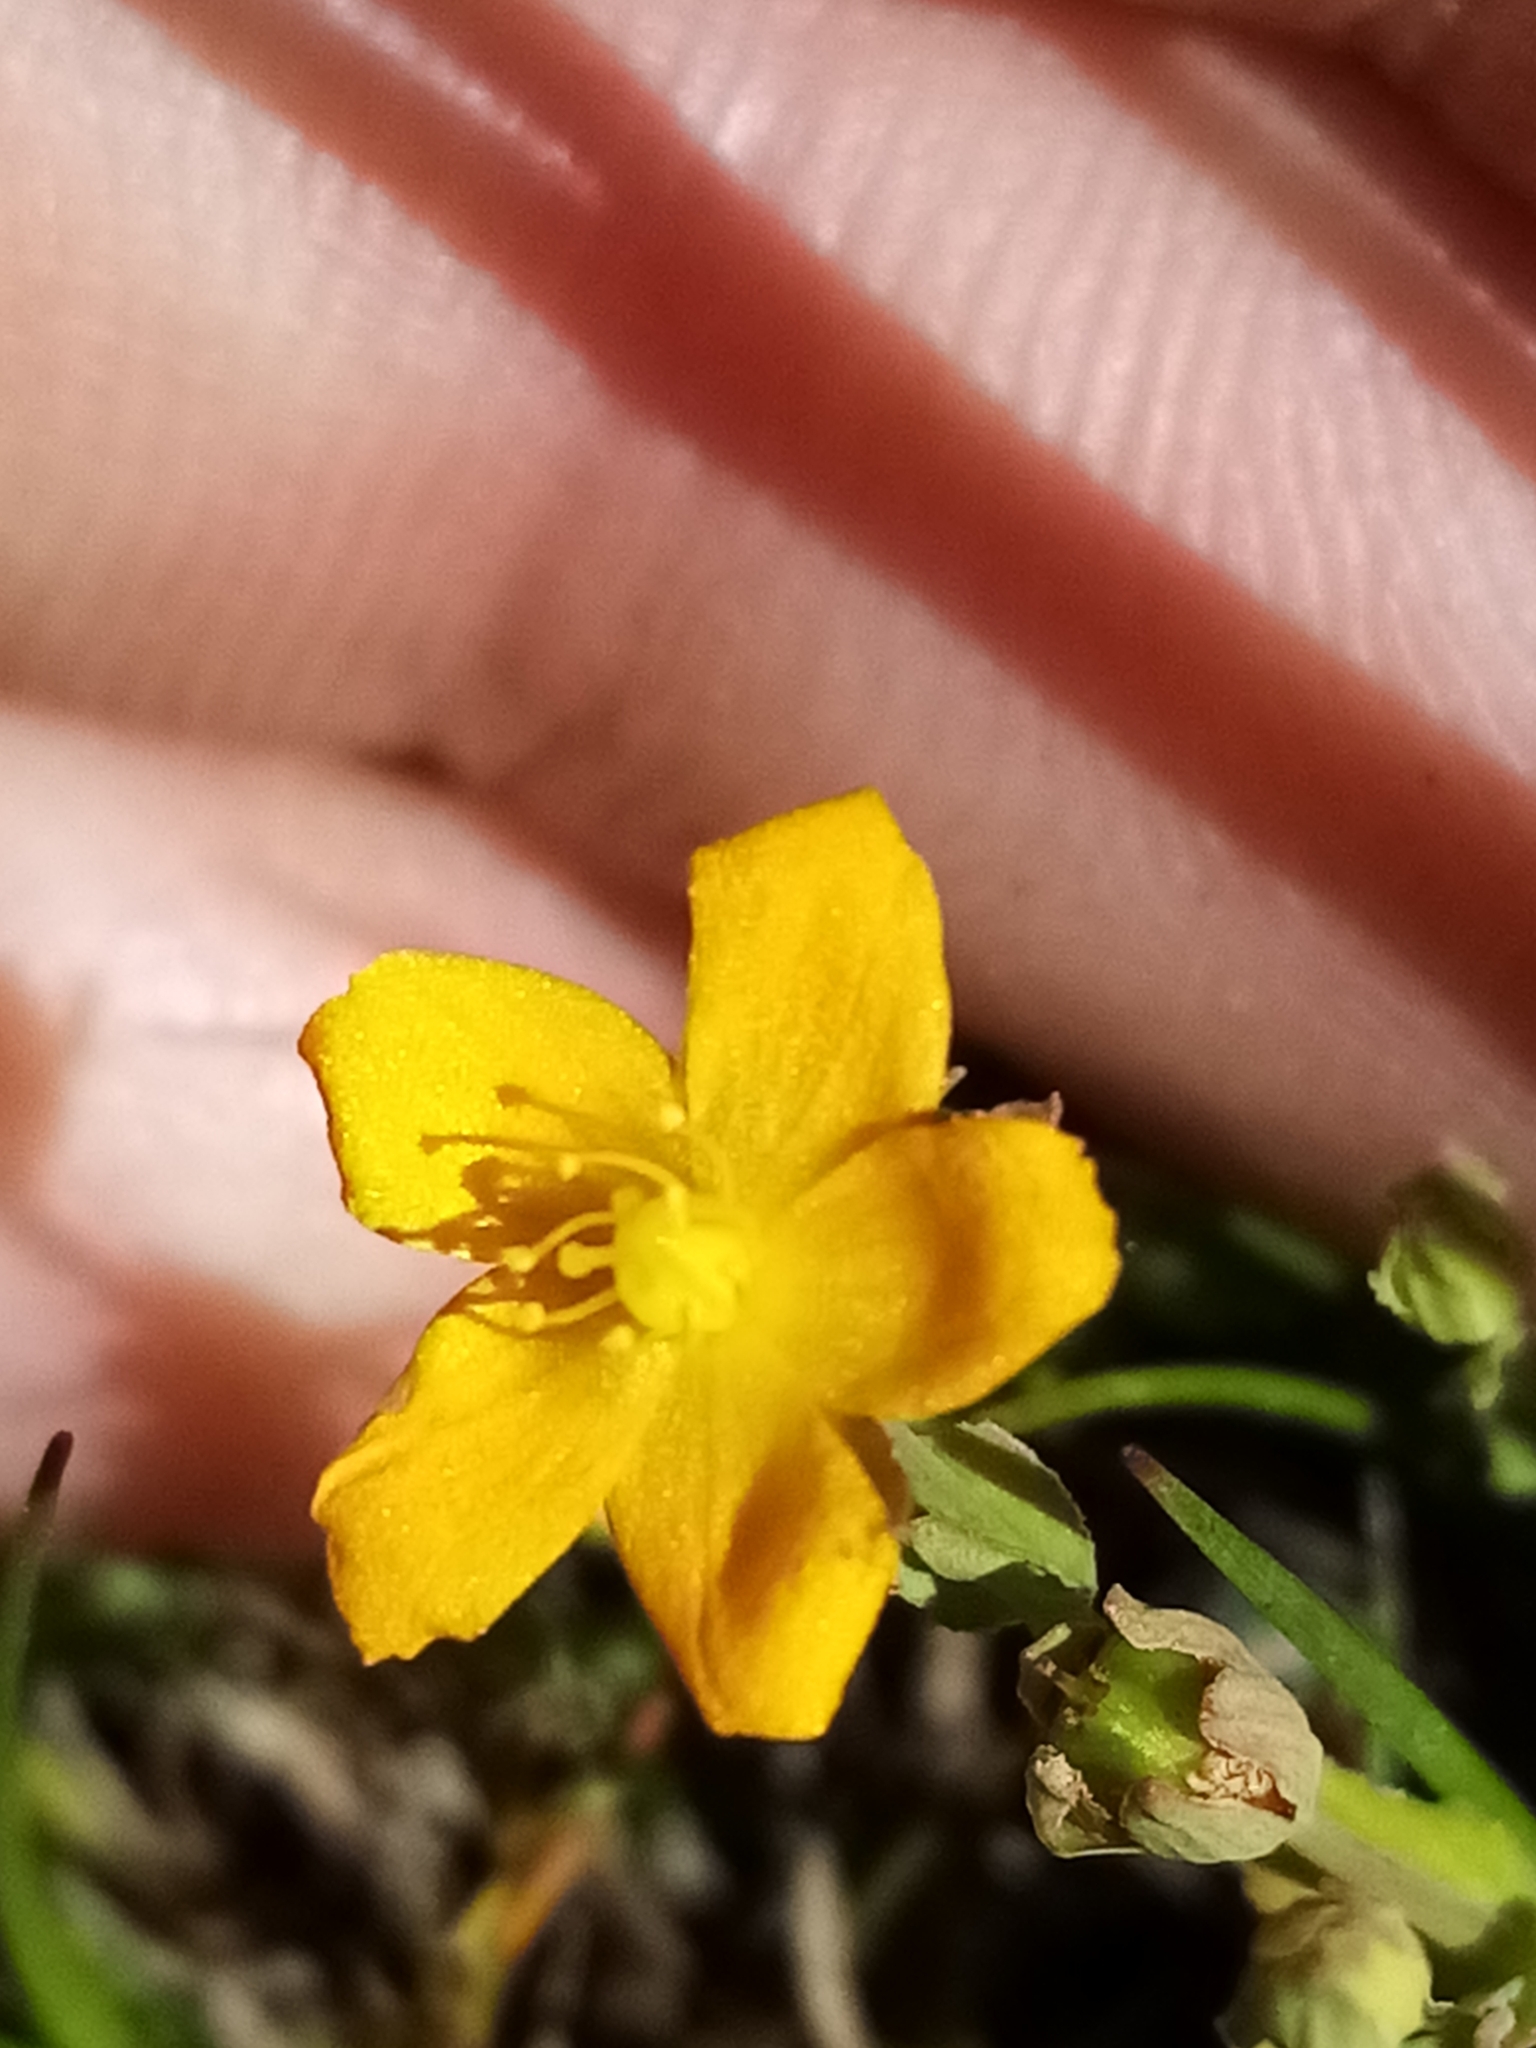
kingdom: Plantae
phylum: Tracheophyta
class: Magnoliopsida
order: Malpighiales
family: Hypericaceae
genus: Hypericum
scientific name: Hypericum japonicum
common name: Matted st. john's-wort
